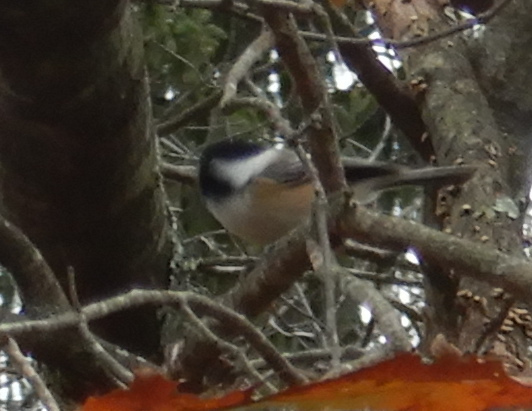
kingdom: Animalia
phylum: Chordata
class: Aves
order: Passeriformes
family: Paridae
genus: Poecile
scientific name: Poecile atricapillus
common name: Black-capped chickadee
